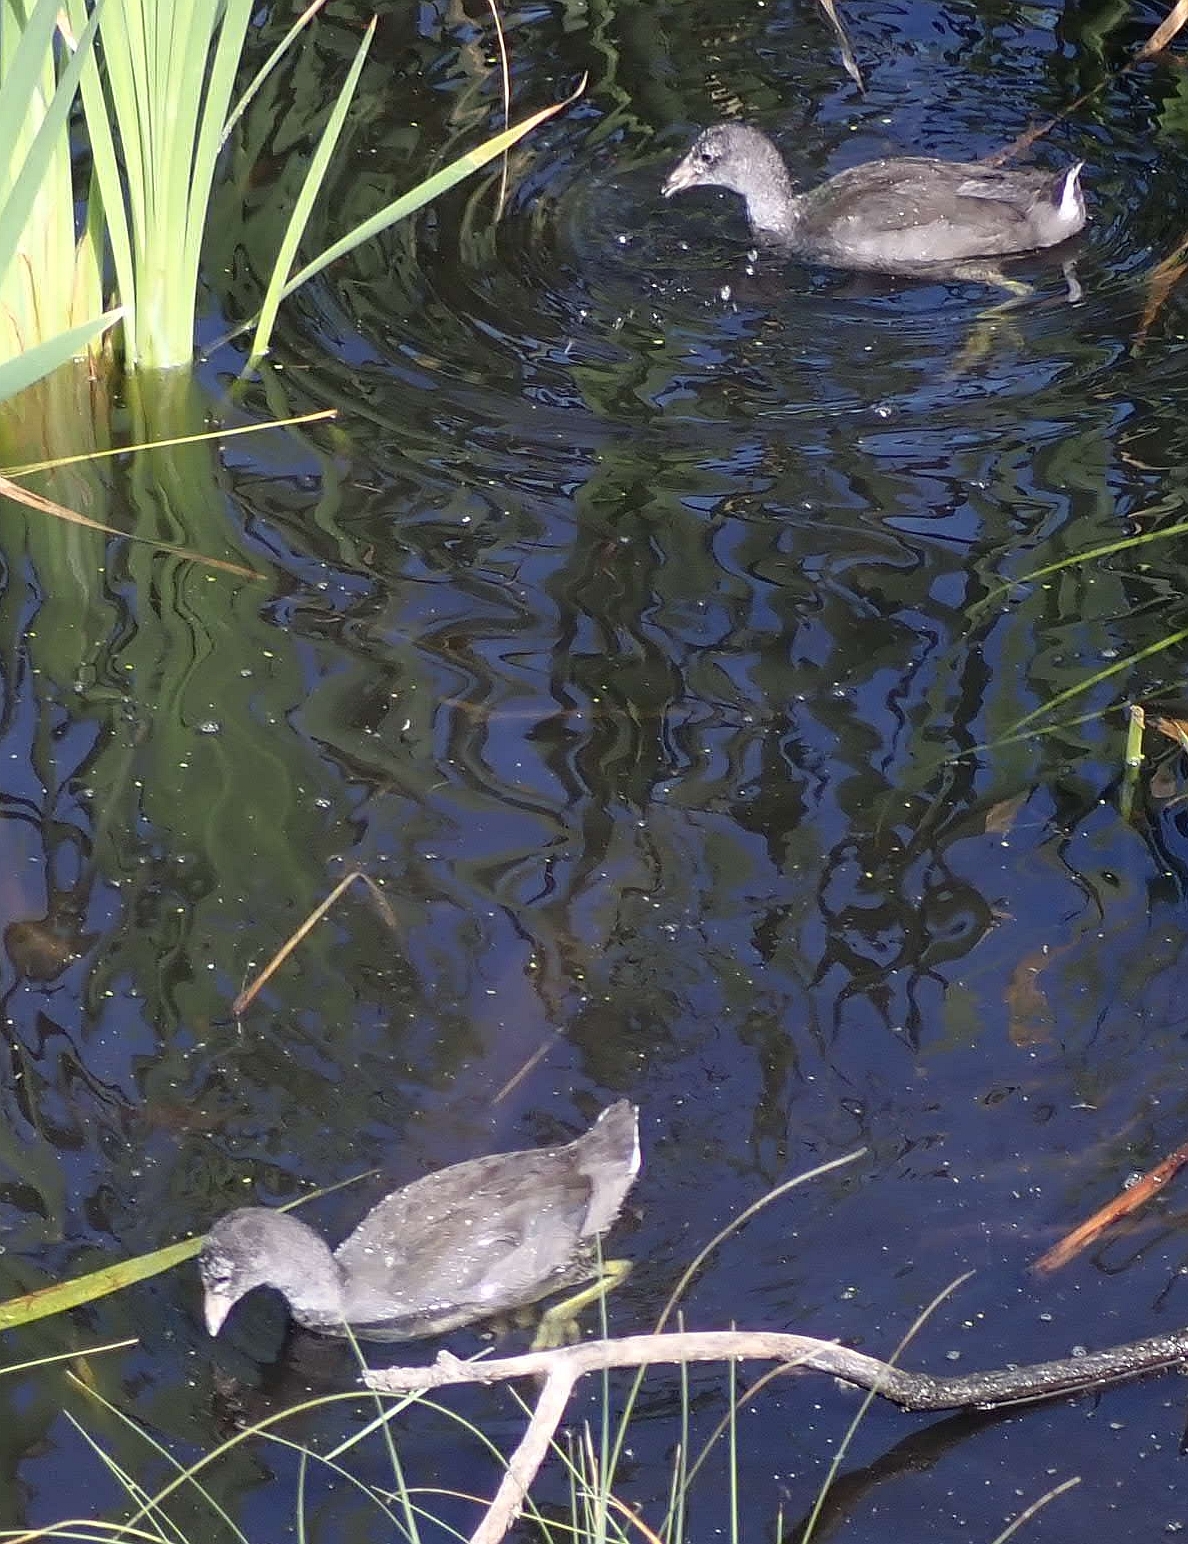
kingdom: Animalia
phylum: Chordata
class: Aves
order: Gruiformes
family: Rallidae
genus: Fulica
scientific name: Fulica americana
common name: American coot
